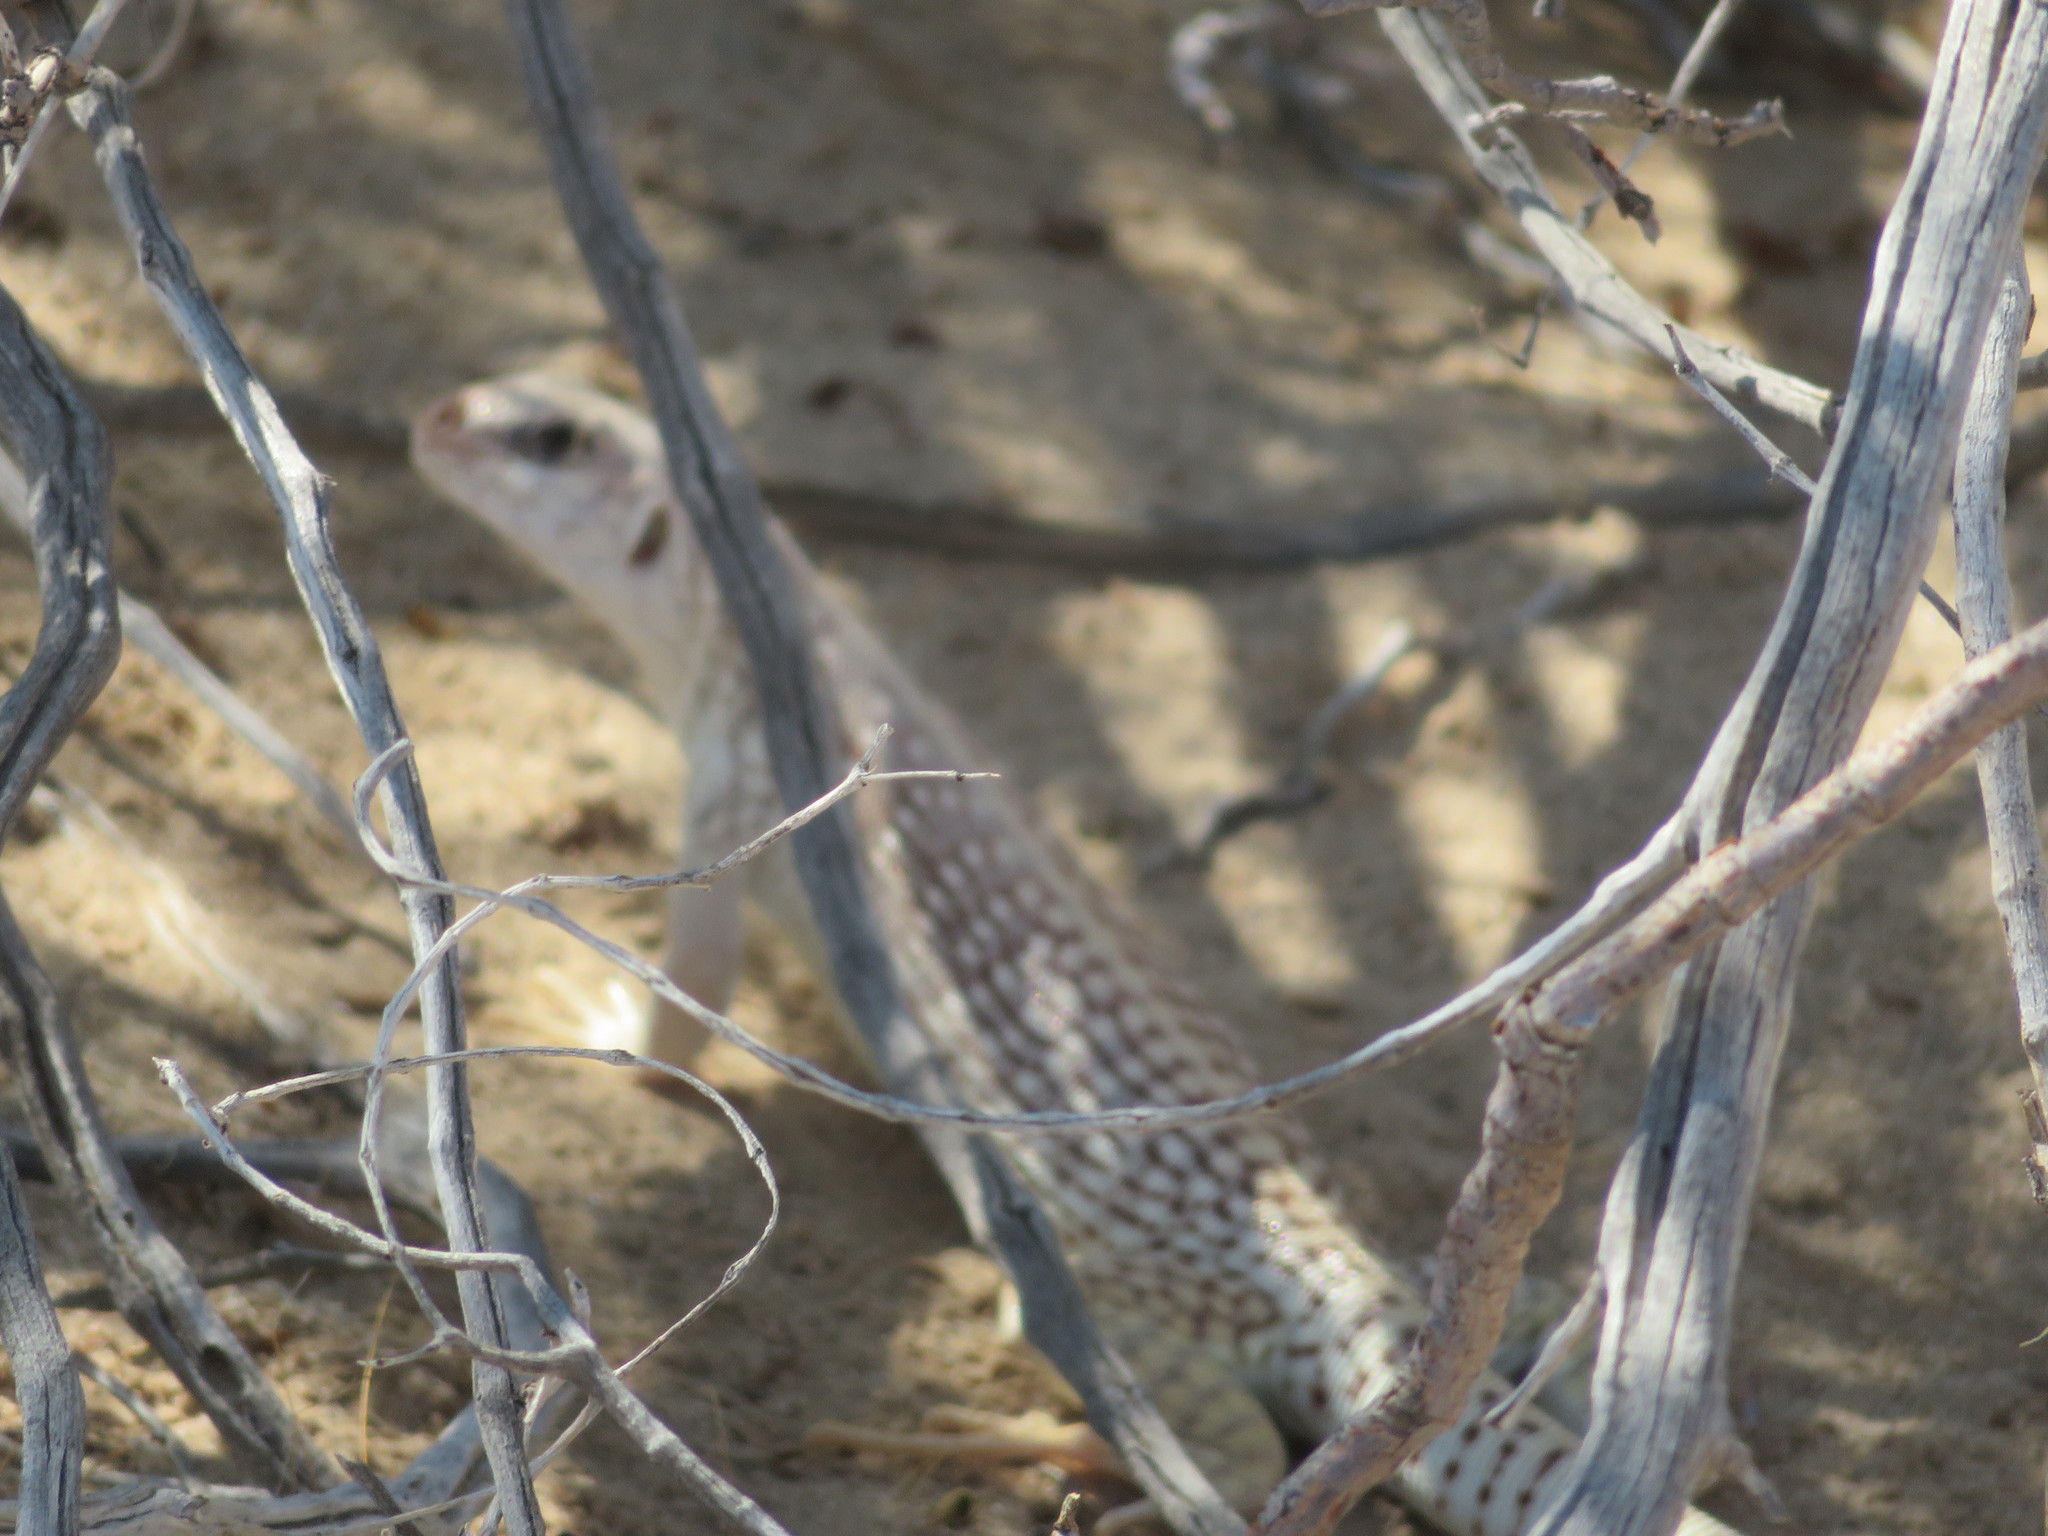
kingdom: Animalia
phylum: Chordata
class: Squamata
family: Iguanidae
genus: Dipsosaurus
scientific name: Dipsosaurus dorsalis
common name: Desert iguana
